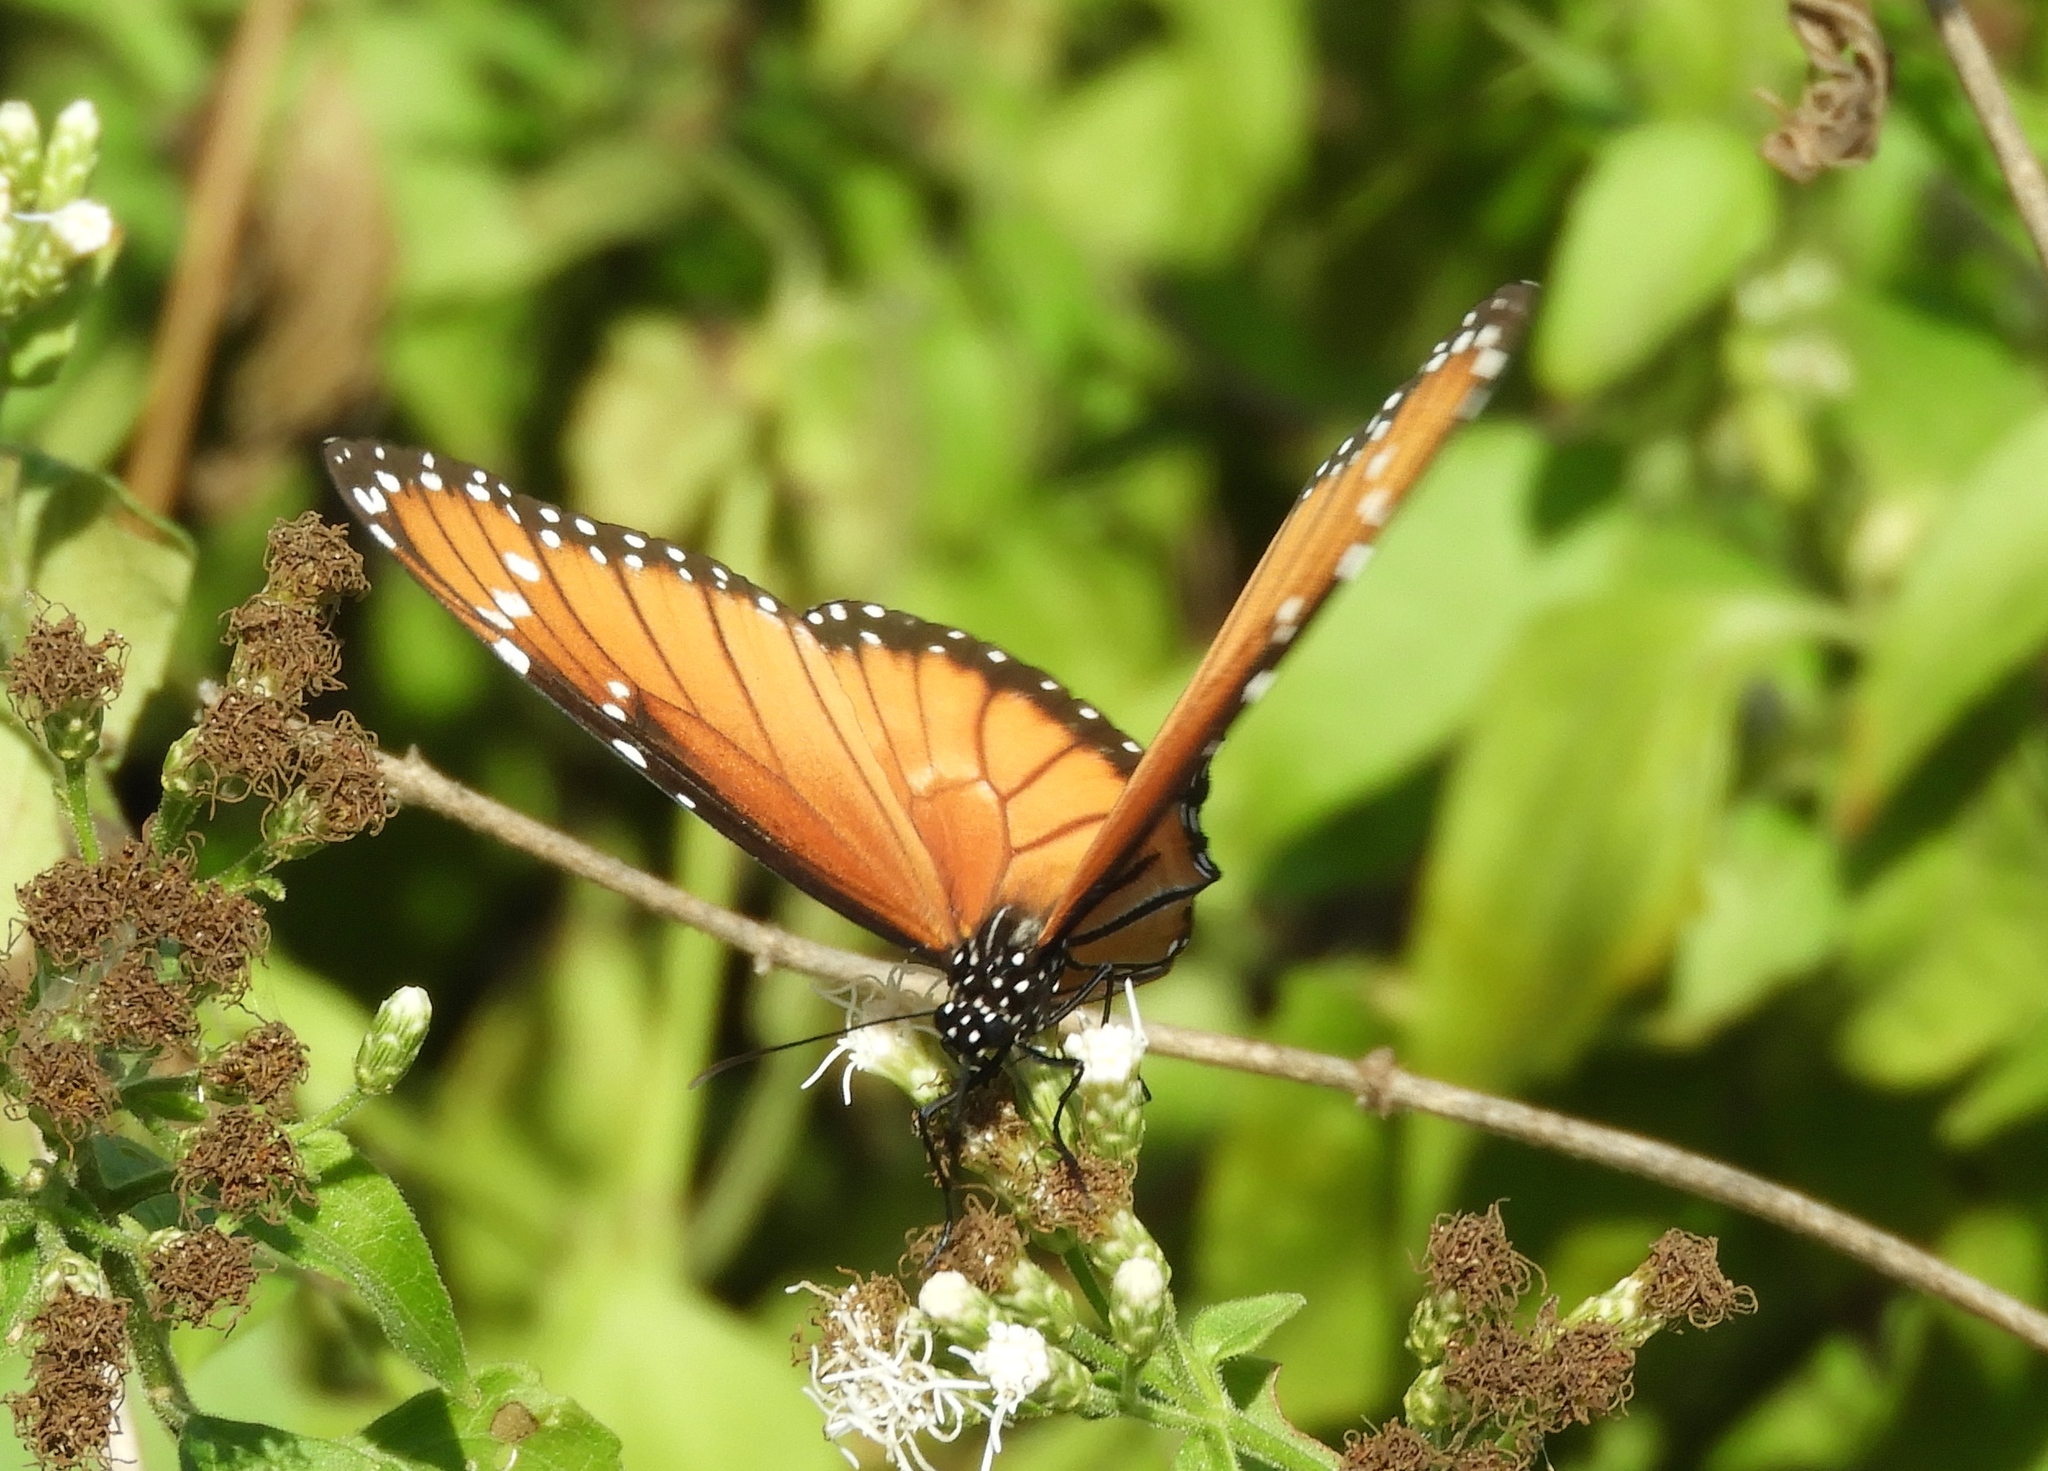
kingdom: Animalia
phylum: Arthropoda
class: Insecta
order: Lepidoptera
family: Nymphalidae
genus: Danaus
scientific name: Danaus eresimus
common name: Soldier
